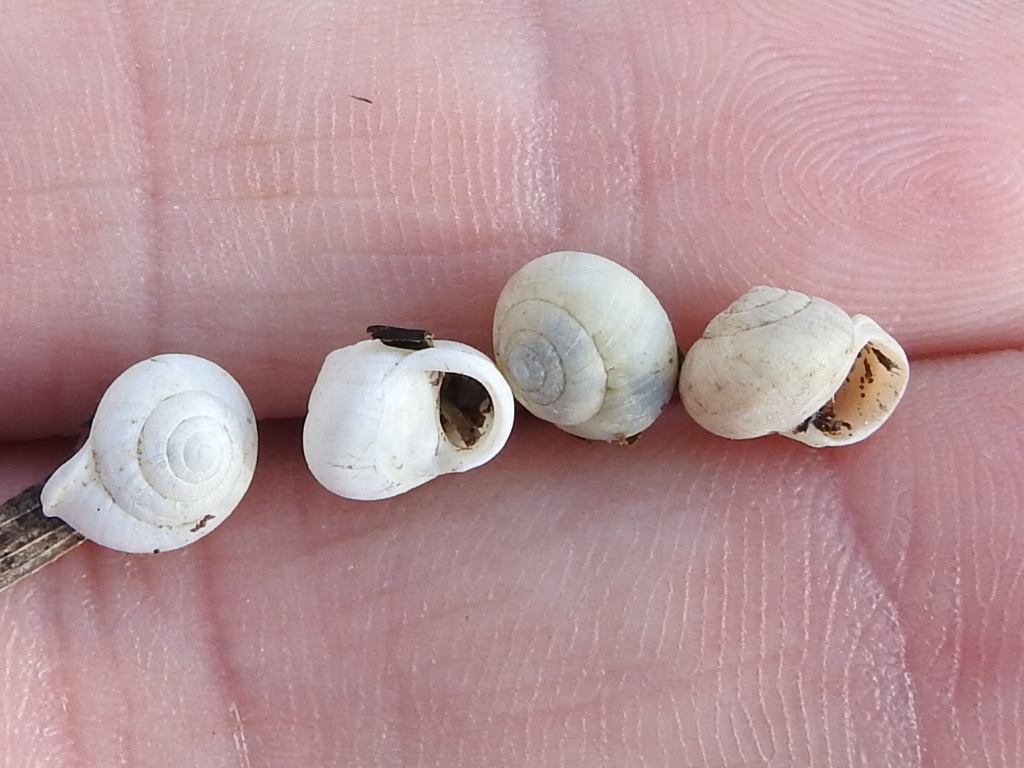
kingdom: Animalia
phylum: Mollusca
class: Gastropoda
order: Cycloneritida
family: Helicinidae
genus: Helicina
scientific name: Helicina orbiculata
